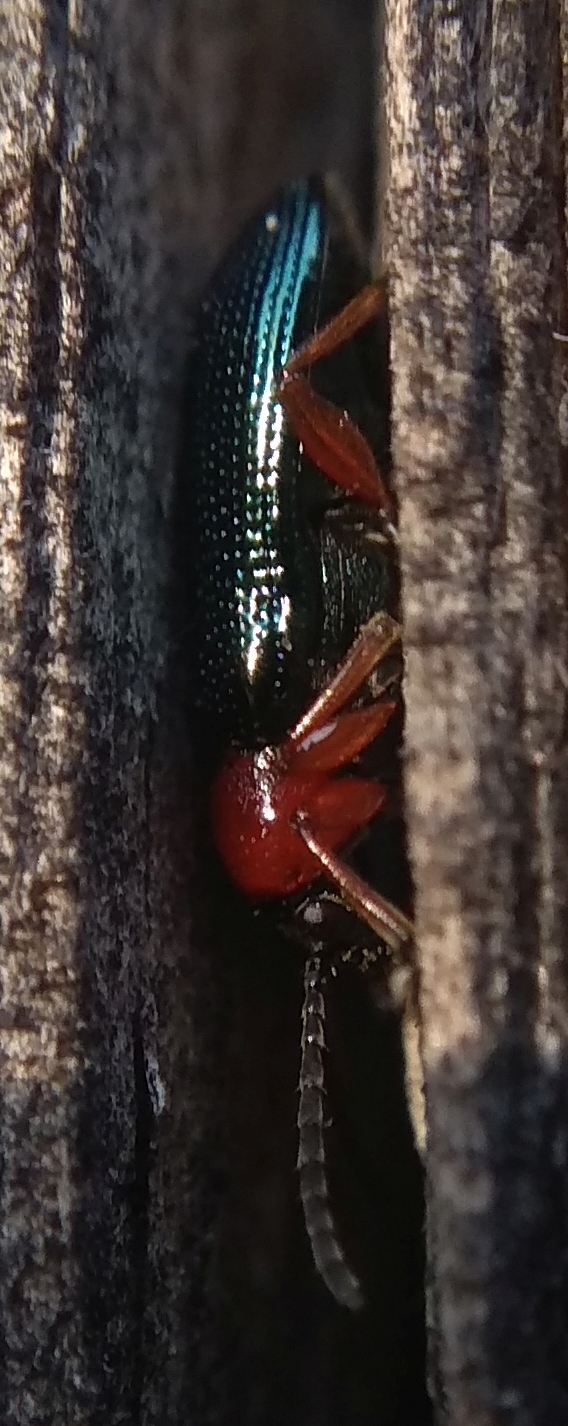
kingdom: Animalia
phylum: Arthropoda
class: Insecta
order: Coleoptera
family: Chrysomelidae
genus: Oulema
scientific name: Oulema
